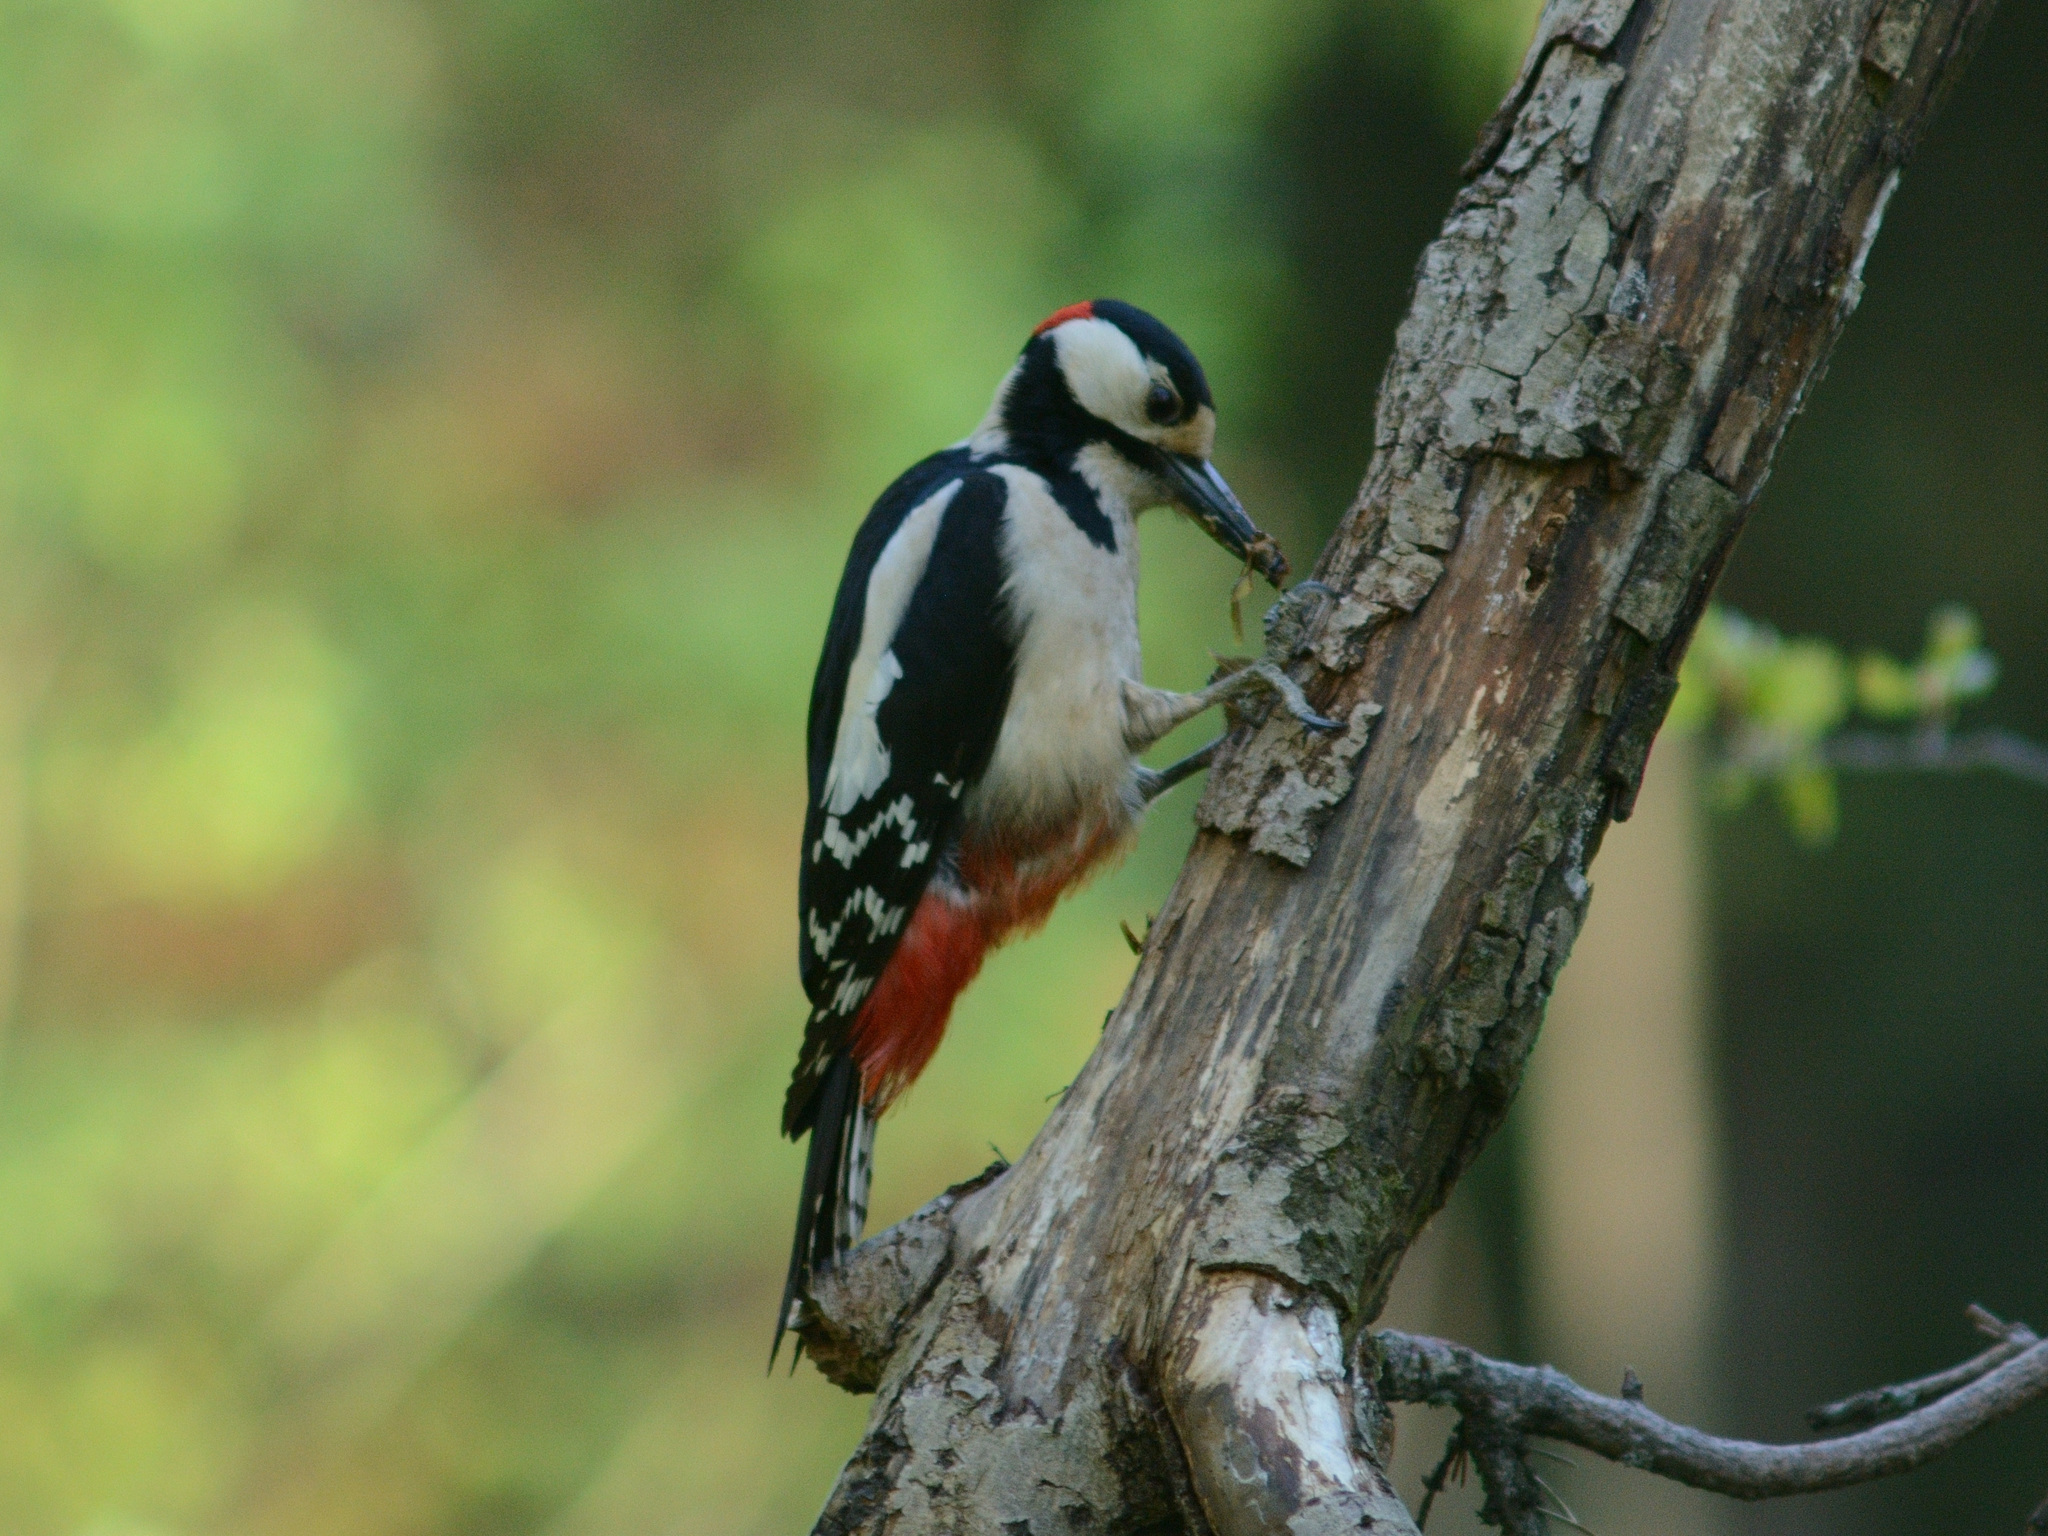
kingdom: Animalia
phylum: Chordata
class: Aves
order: Piciformes
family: Picidae
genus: Dendrocopos
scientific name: Dendrocopos major
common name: Great spotted woodpecker
